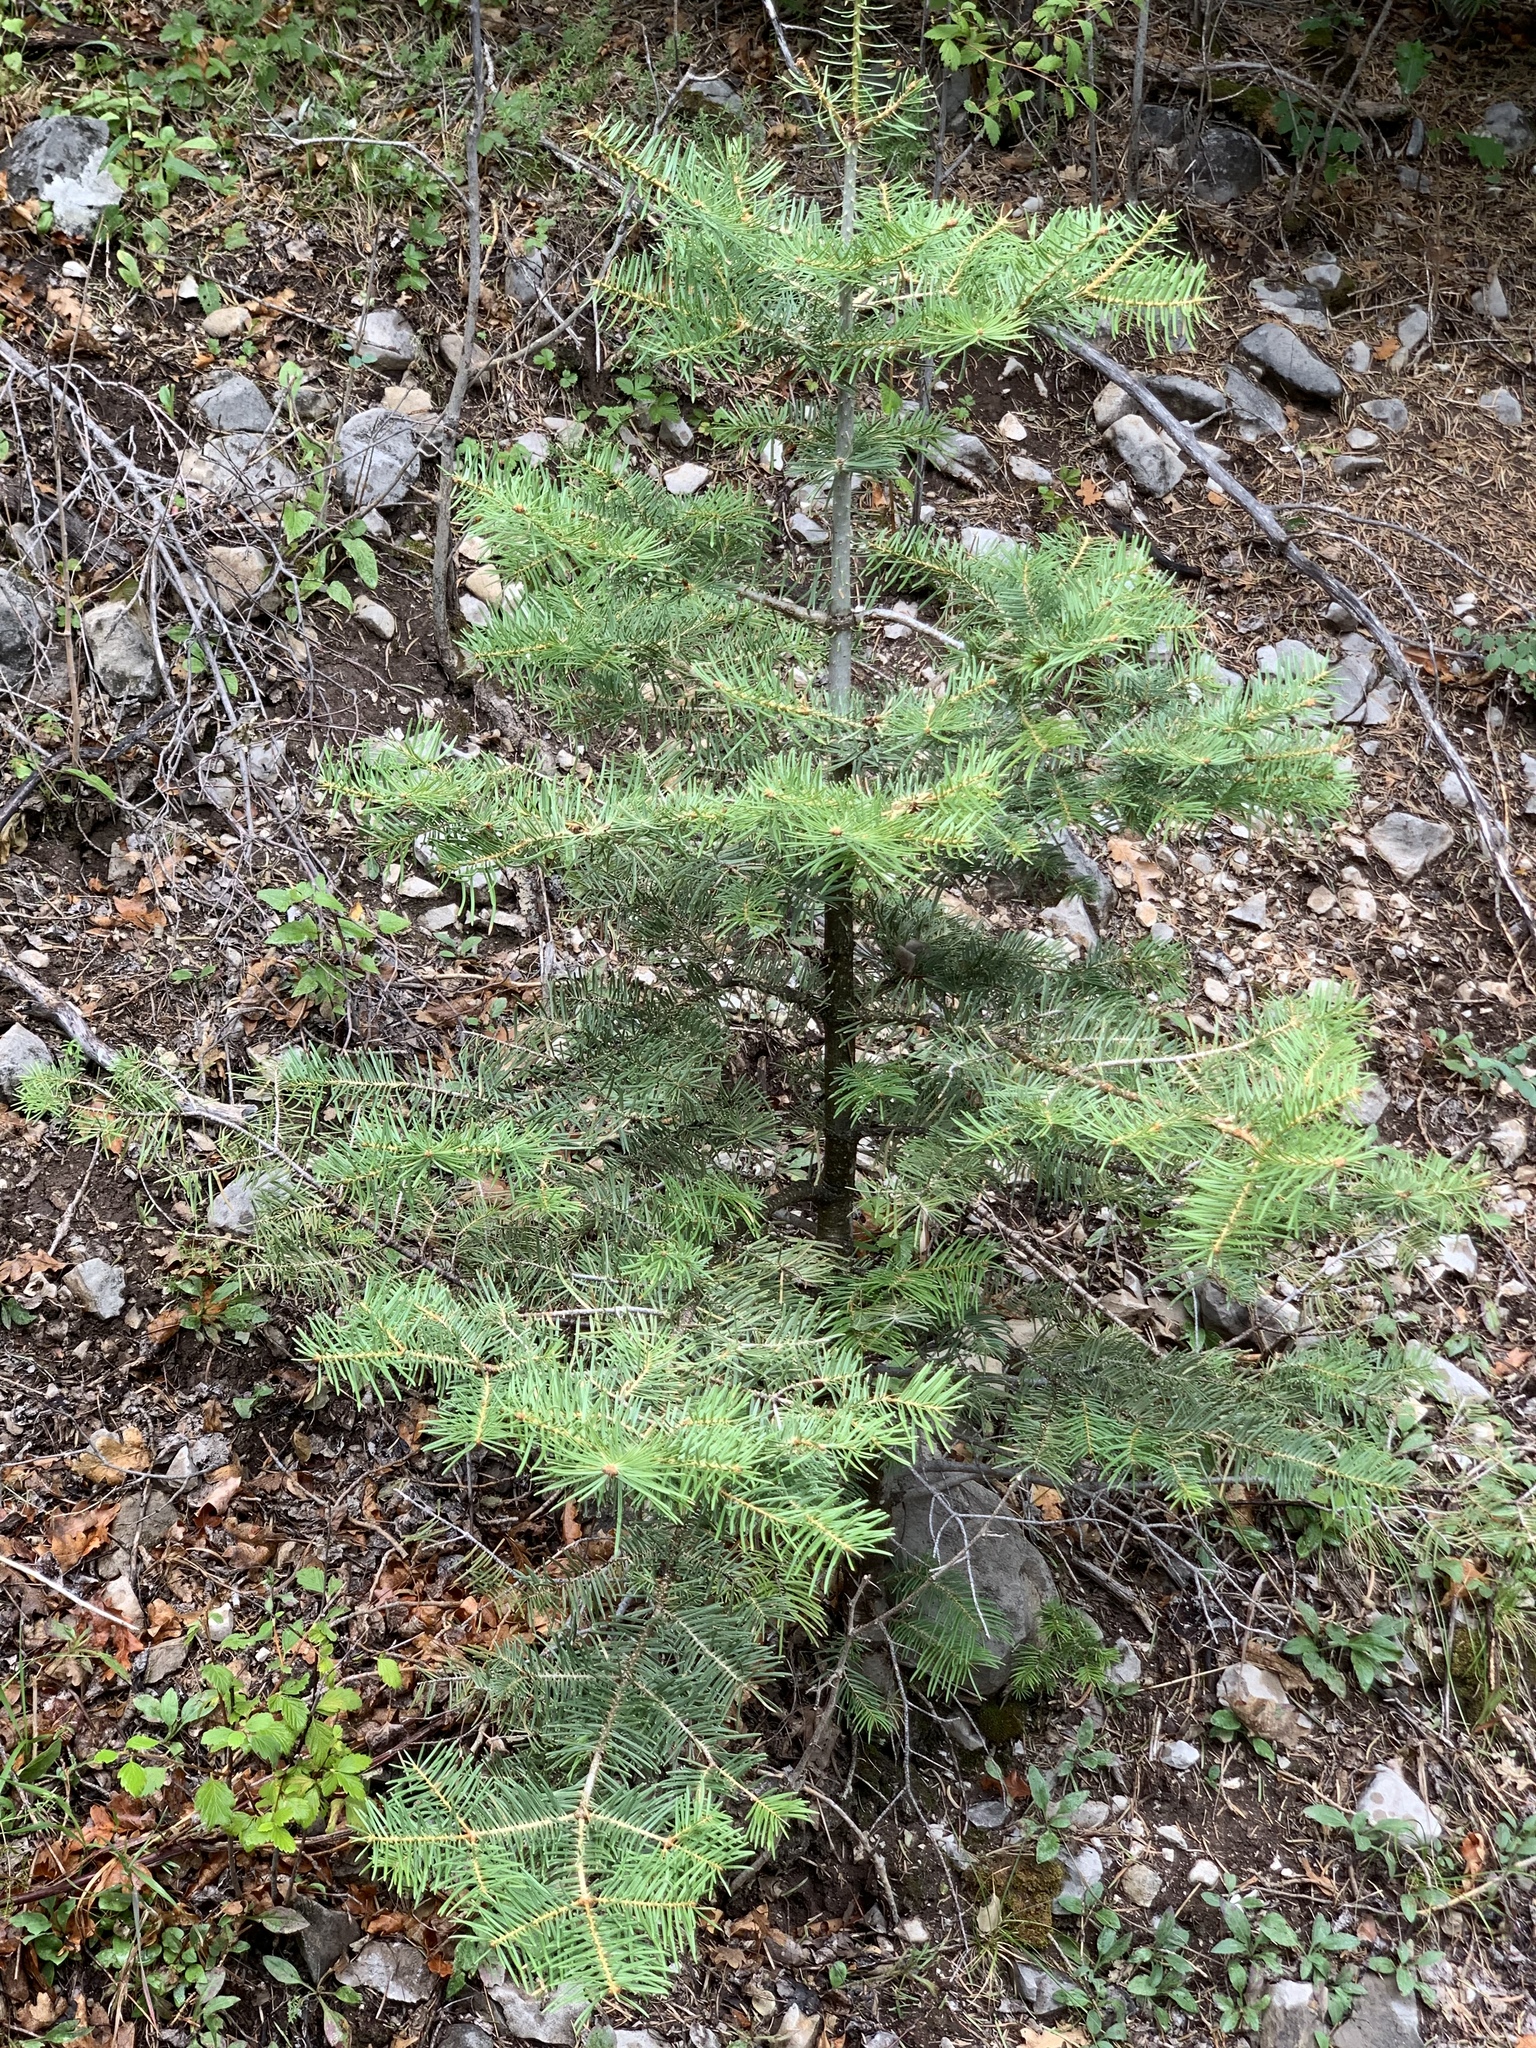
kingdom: Plantae
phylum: Tracheophyta
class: Pinopsida
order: Pinales
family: Pinaceae
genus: Abies
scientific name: Abies concolor
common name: Colorado fir
